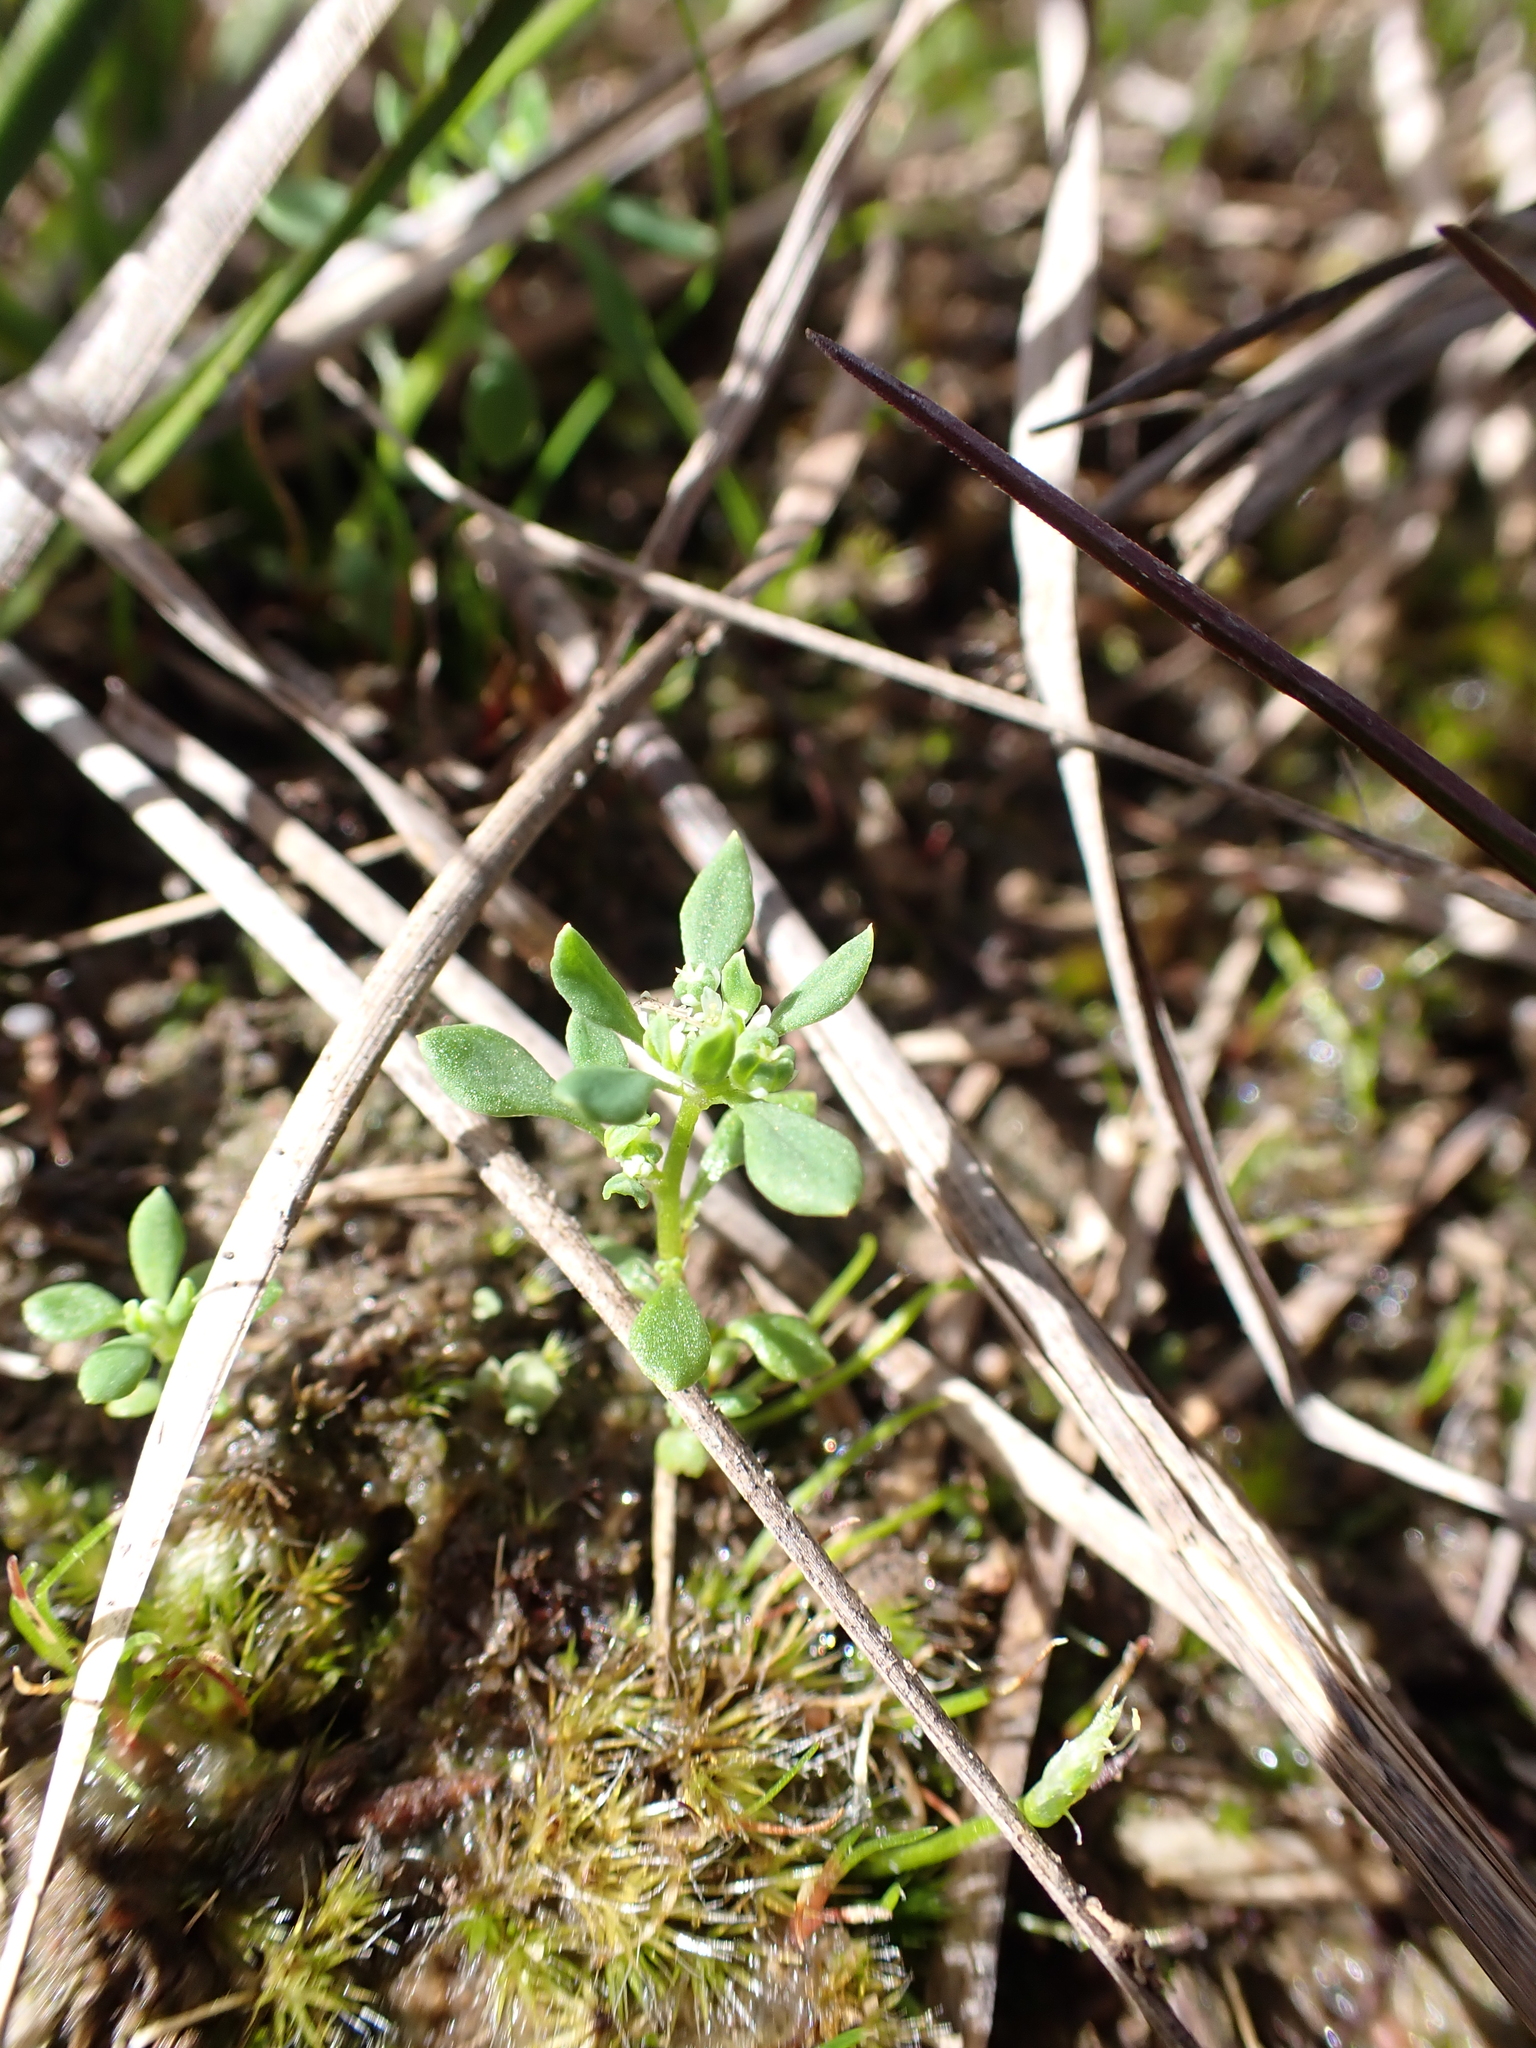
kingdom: Plantae
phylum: Tracheophyta
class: Magnoliopsida
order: Malpighiales
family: Phyllanthaceae
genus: Poranthera
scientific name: Poranthera microphylla
